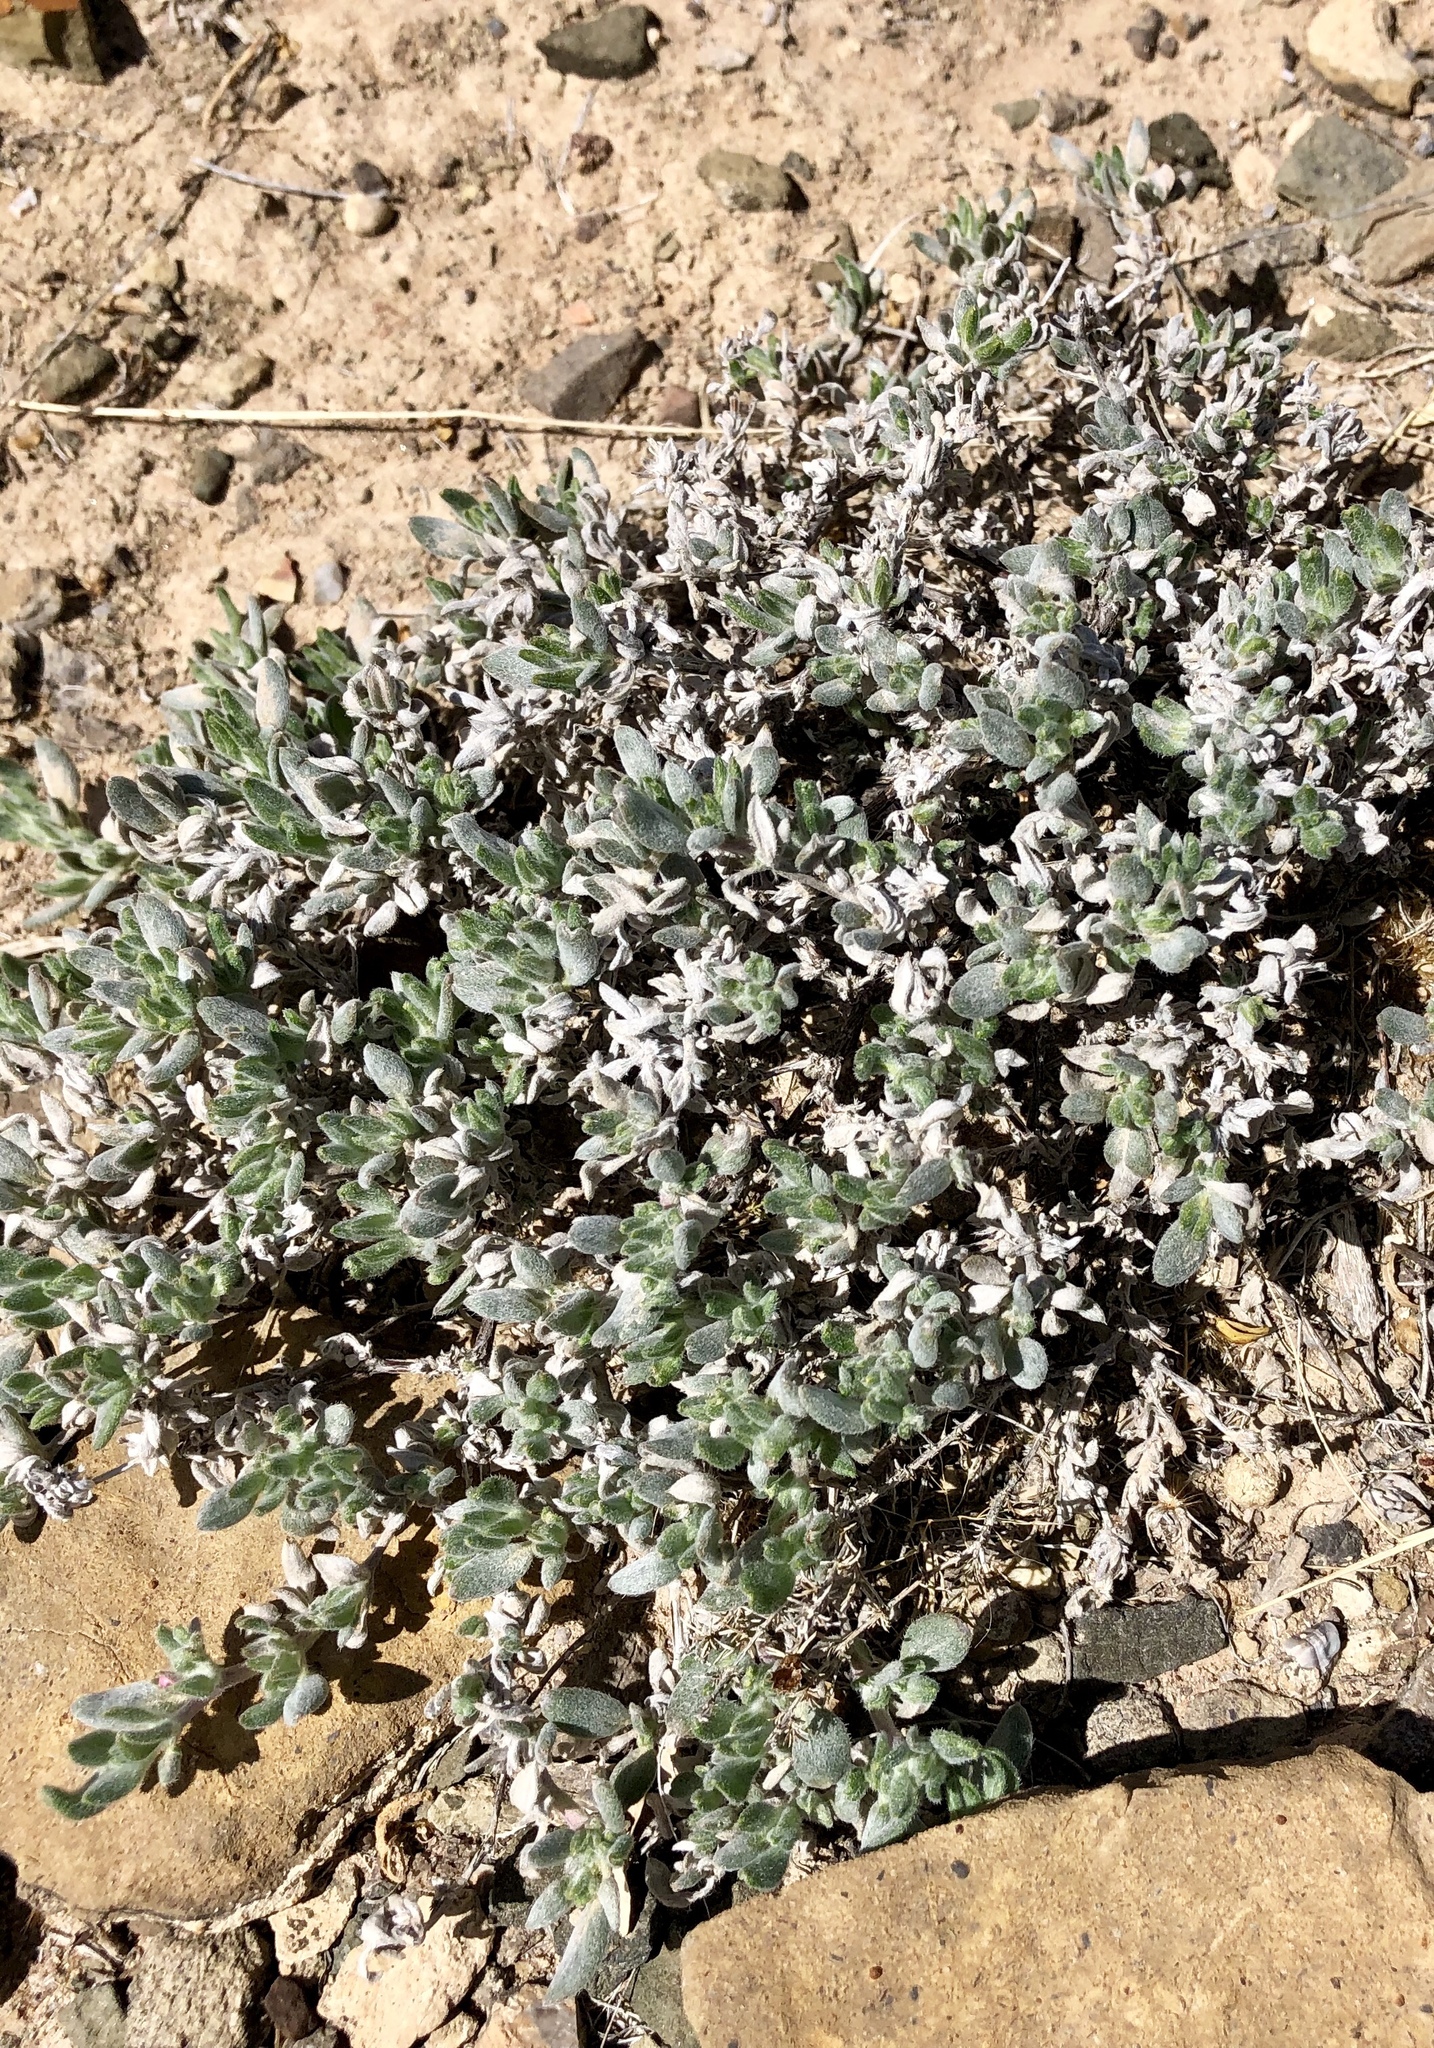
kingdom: Plantae
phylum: Tracheophyta
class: Magnoliopsida
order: Boraginales
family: Ehretiaceae
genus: Tiquilia
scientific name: Tiquilia canescens
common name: Hairy tiquilia
